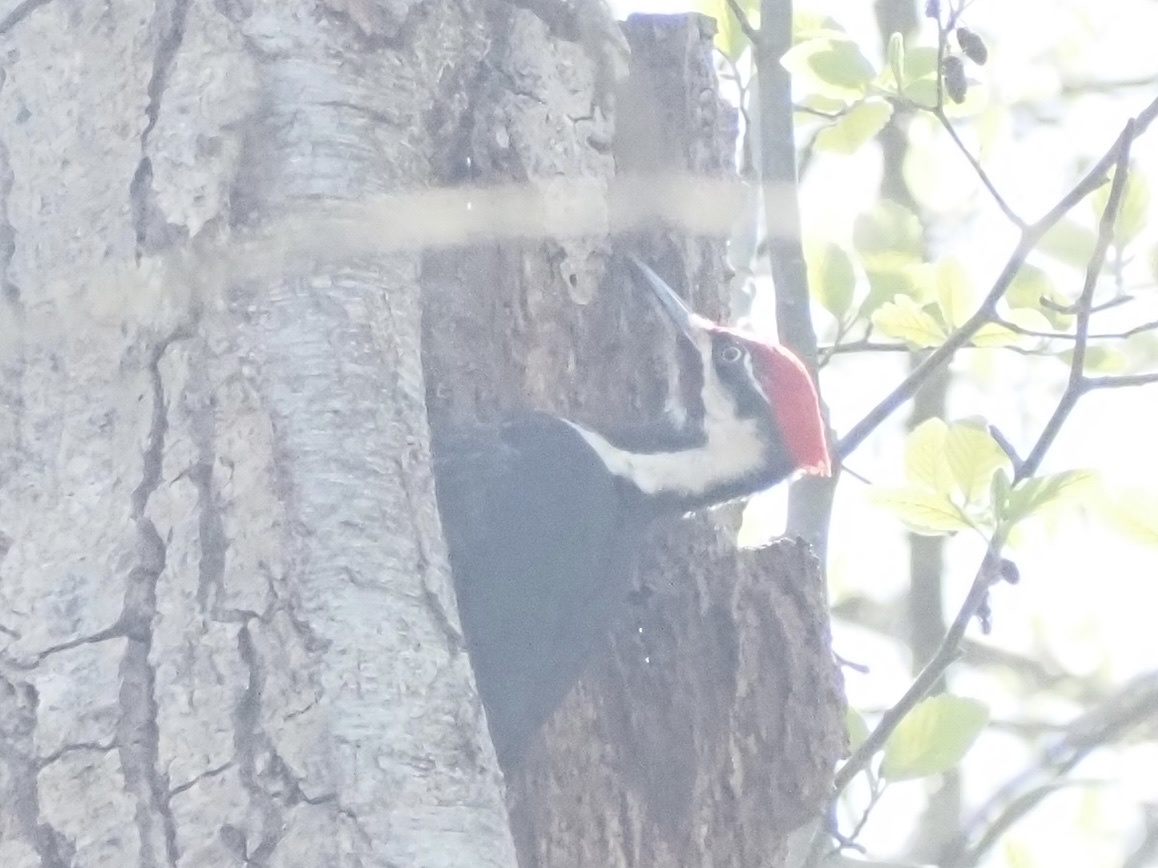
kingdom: Animalia
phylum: Chordata
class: Aves
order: Piciformes
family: Picidae
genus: Dryocopus
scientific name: Dryocopus pileatus
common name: Pileated woodpecker
